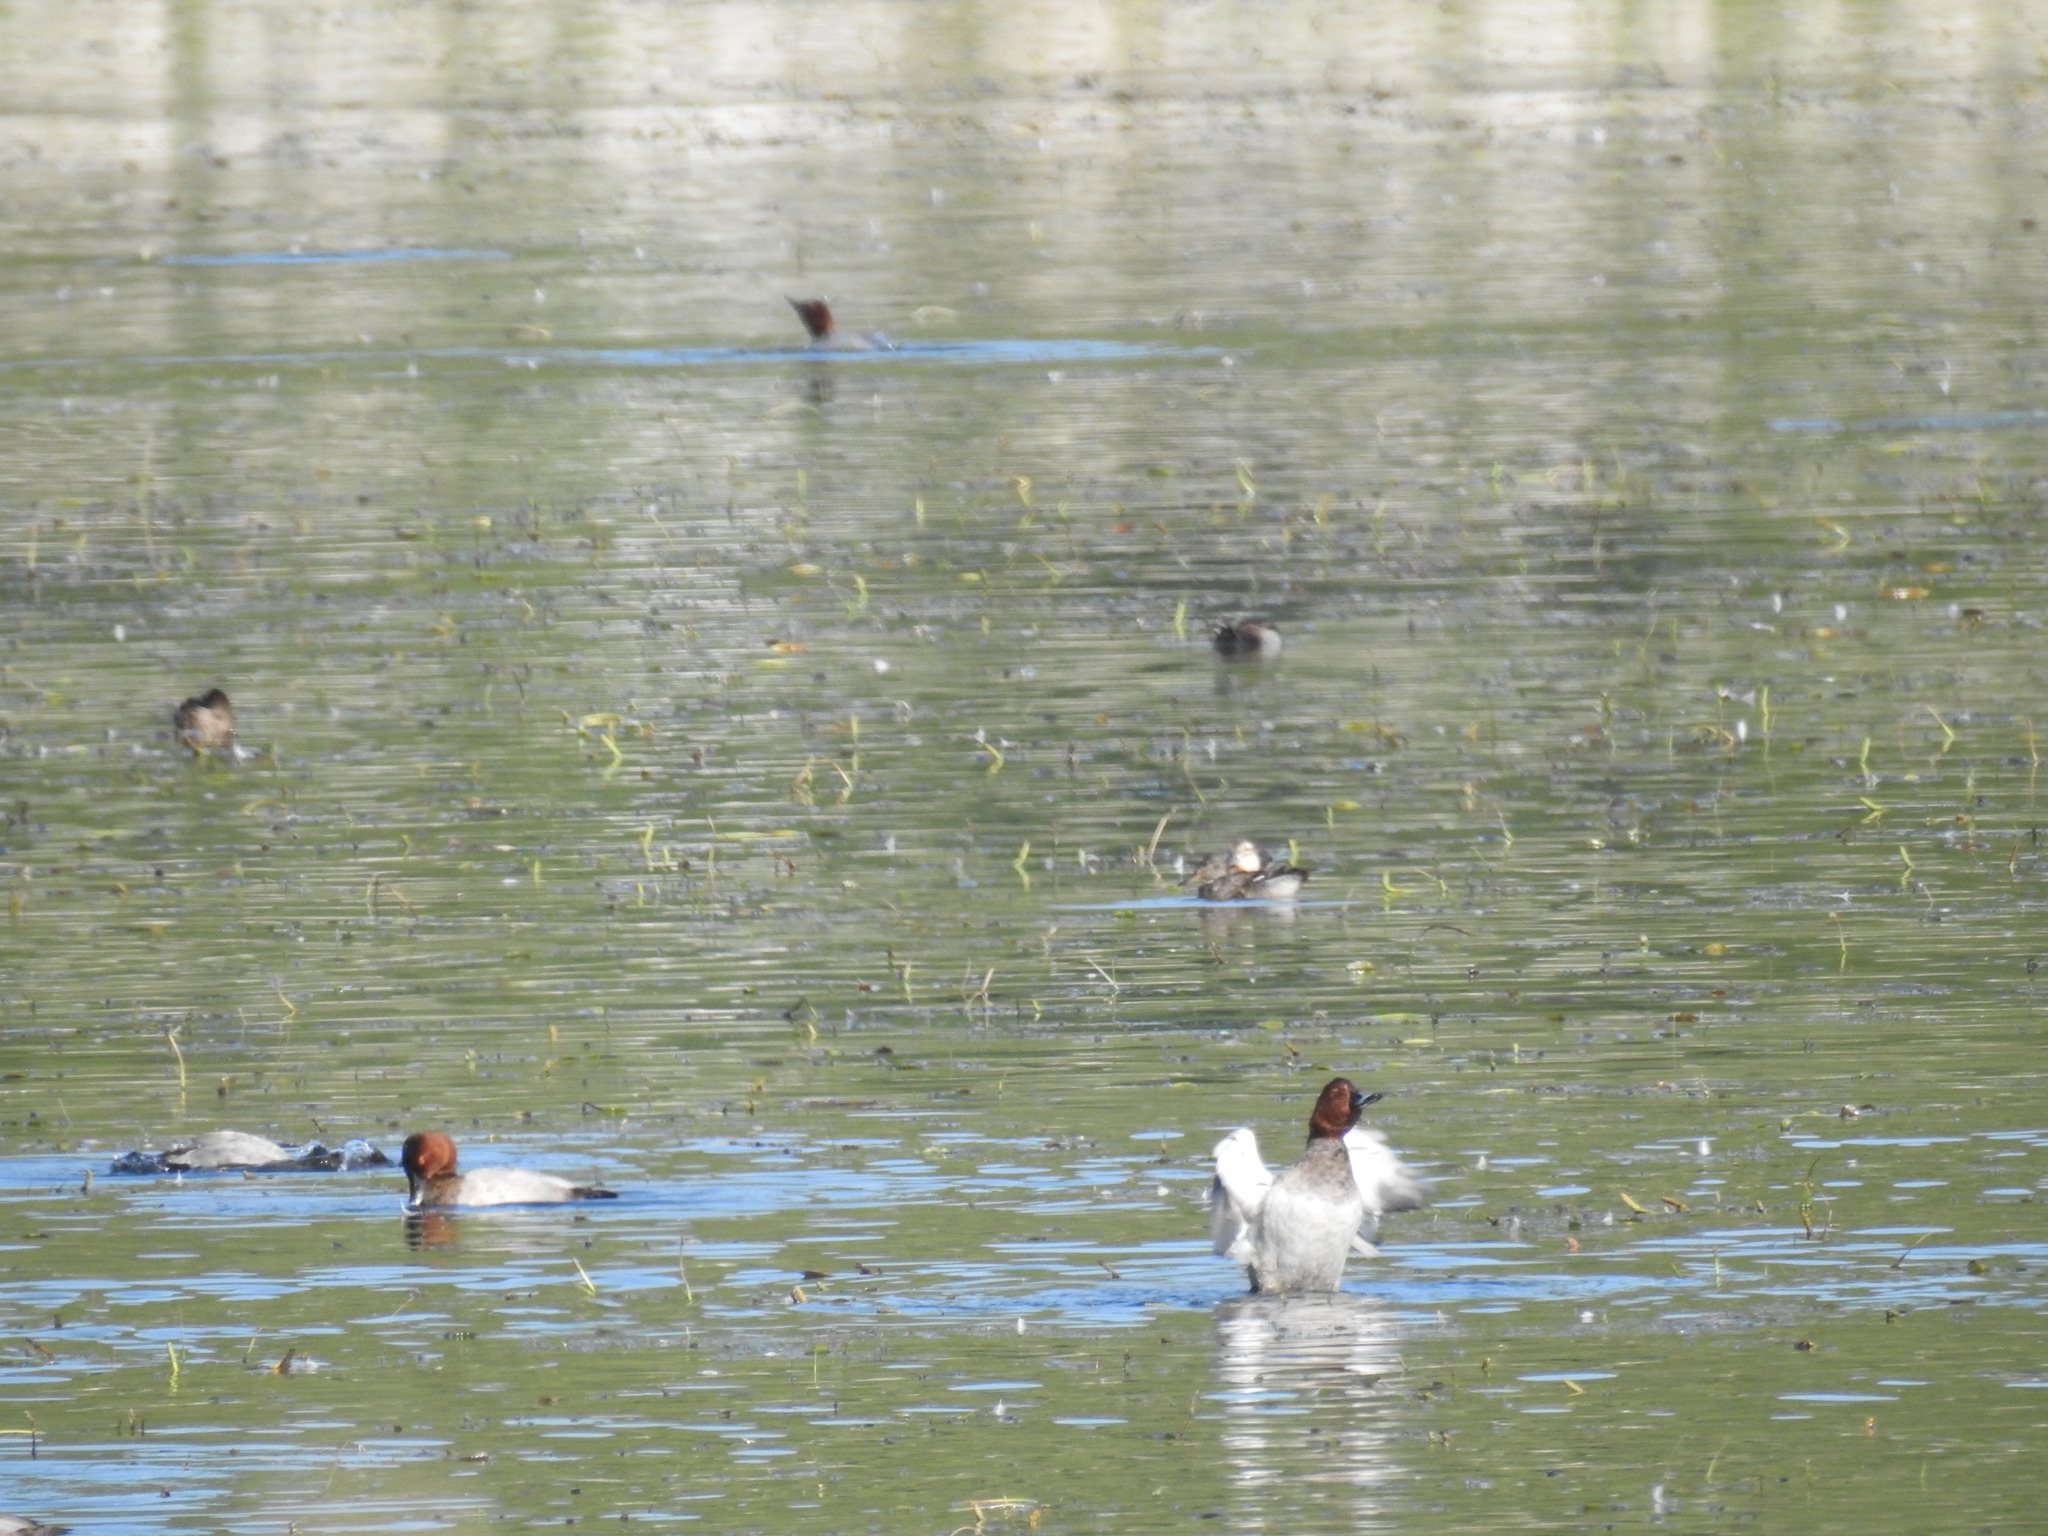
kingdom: Animalia
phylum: Chordata
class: Aves
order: Anseriformes
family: Anatidae
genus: Spatula
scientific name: Spatula querquedula
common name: Garganey
